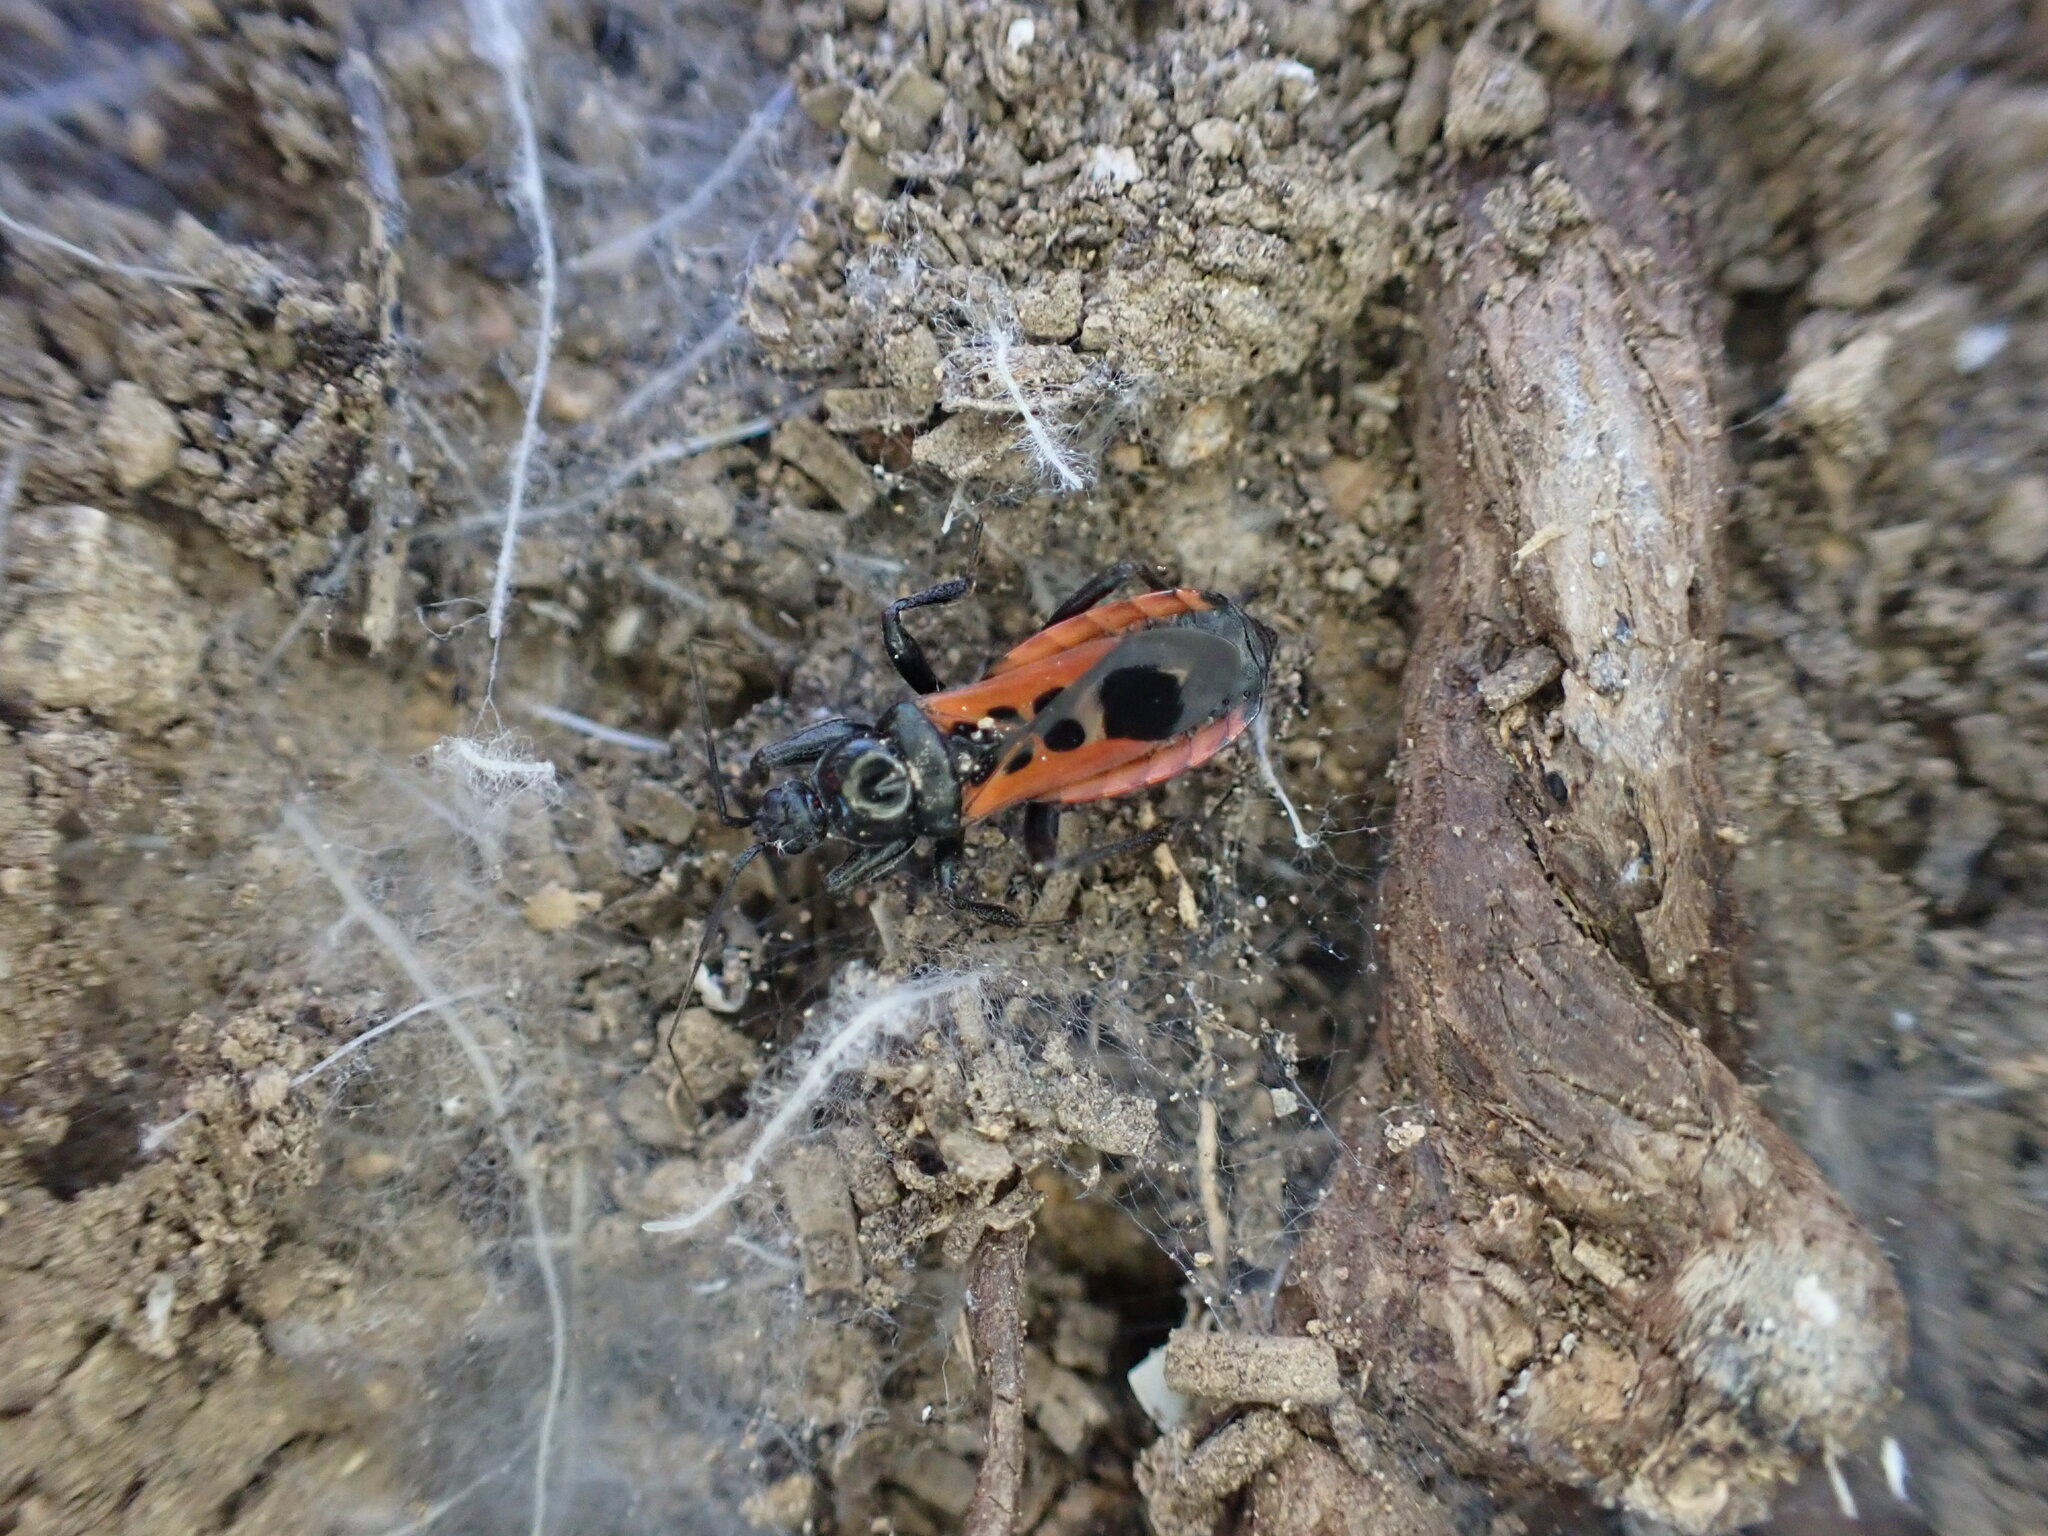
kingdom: Animalia
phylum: Arthropoda
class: Insecta
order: Hemiptera
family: Reduviidae
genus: Peirates
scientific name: Peirates stridulus
